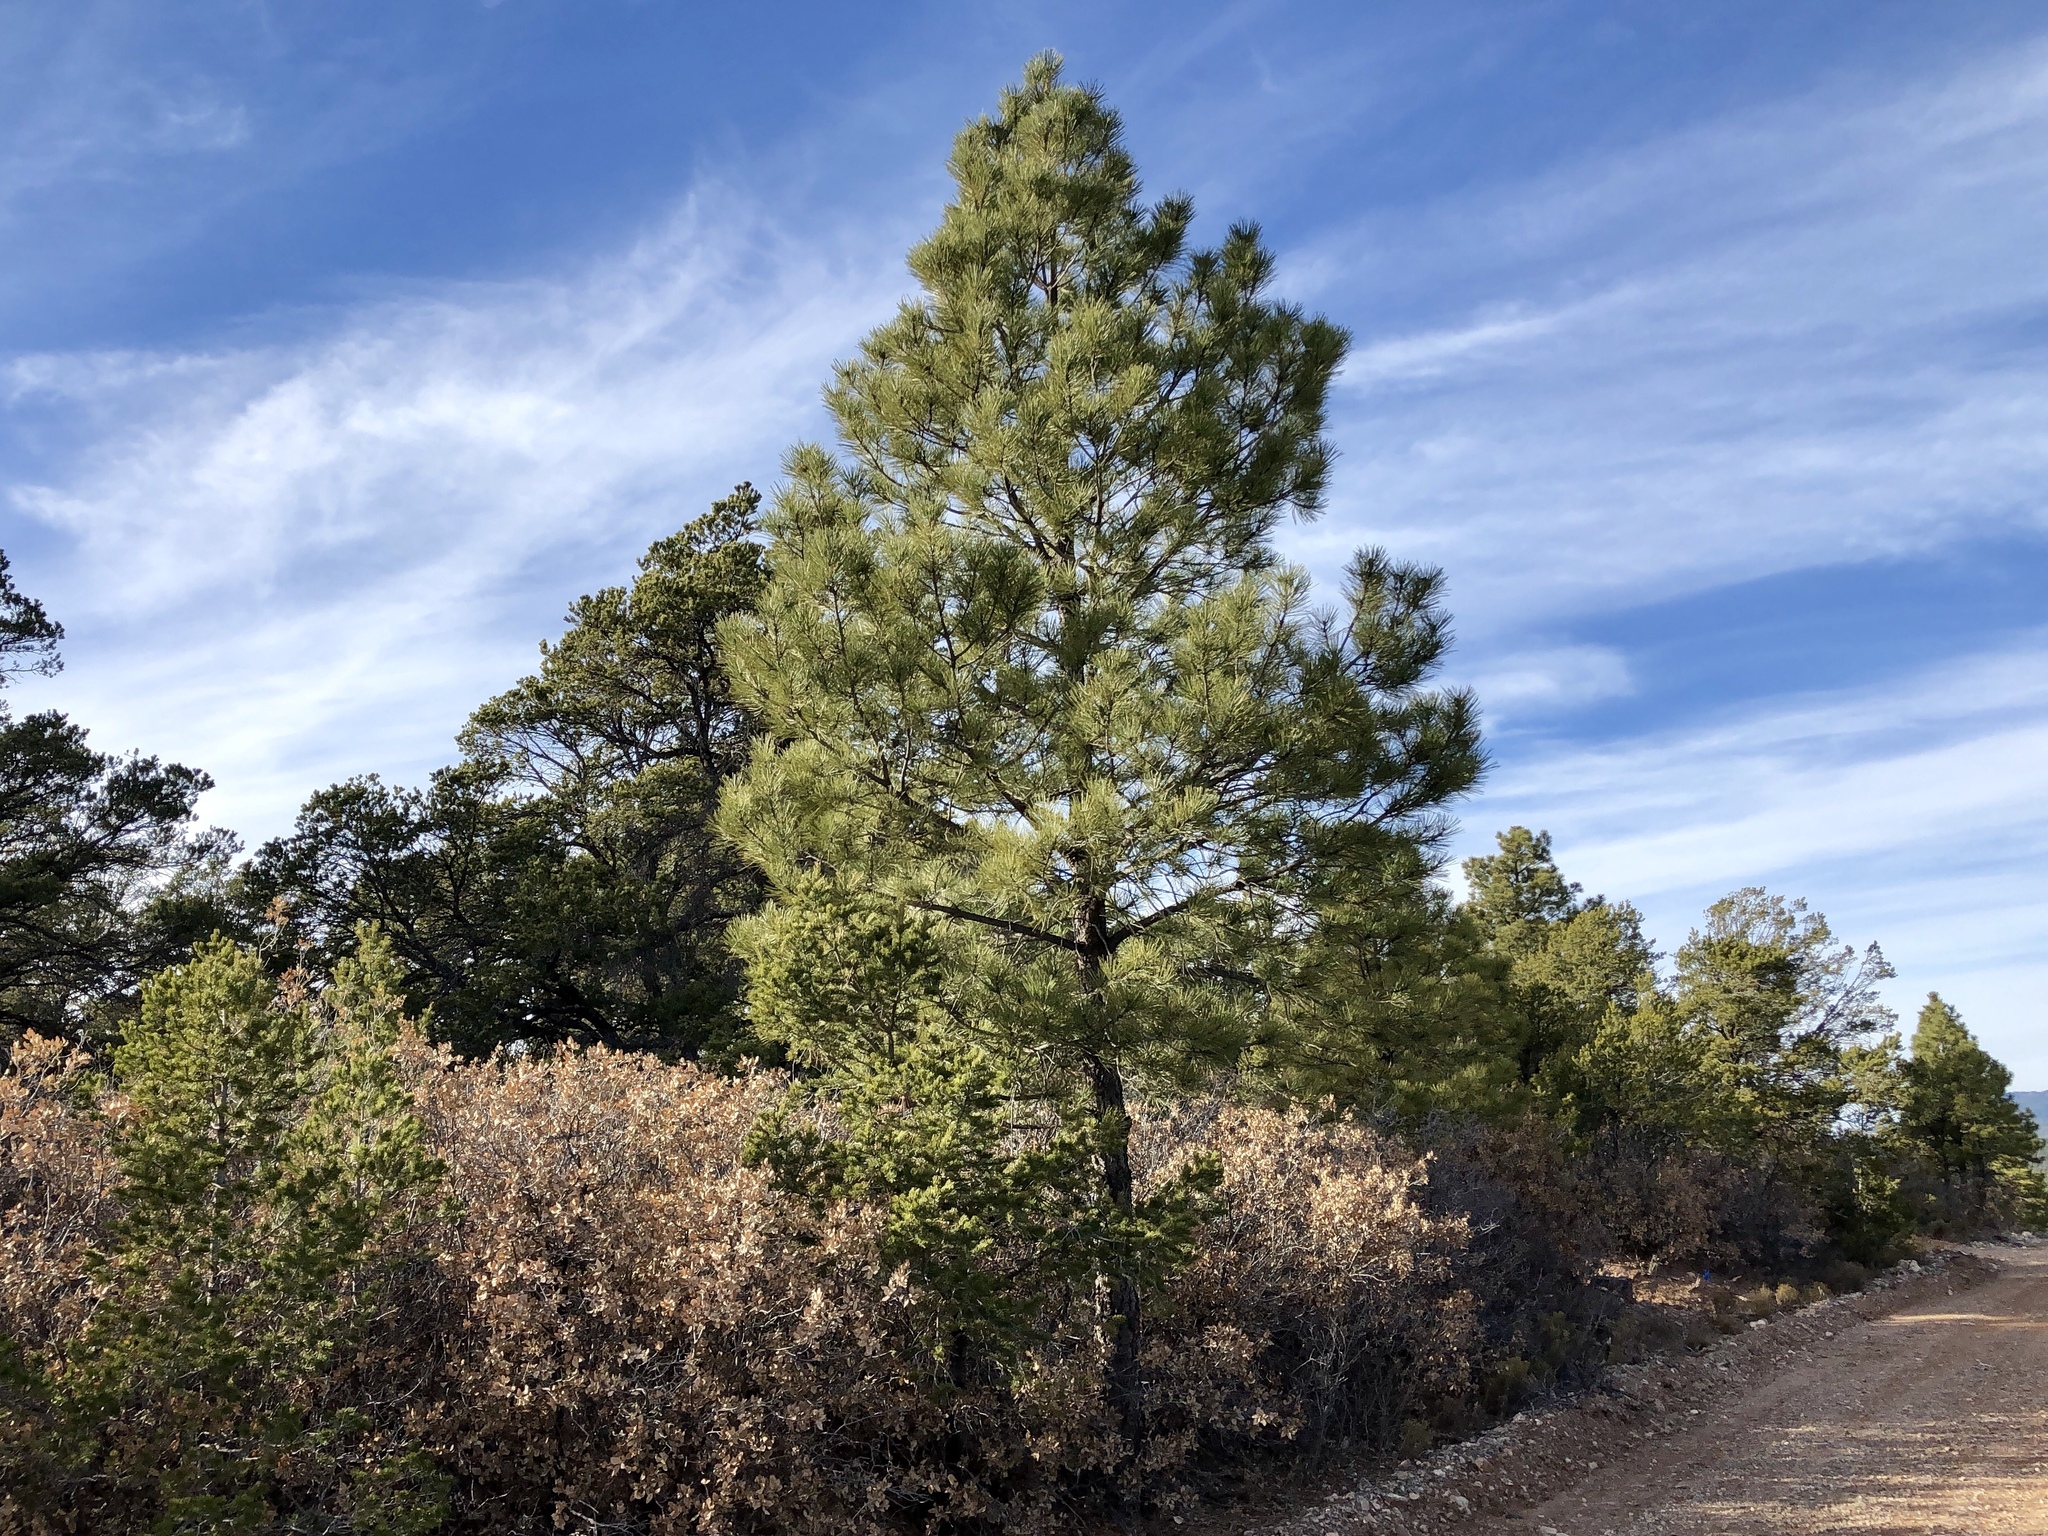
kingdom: Plantae
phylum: Tracheophyta
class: Pinopsida
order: Pinales
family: Pinaceae
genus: Pinus
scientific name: Pinus ponderosa
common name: Western yellow-pine
